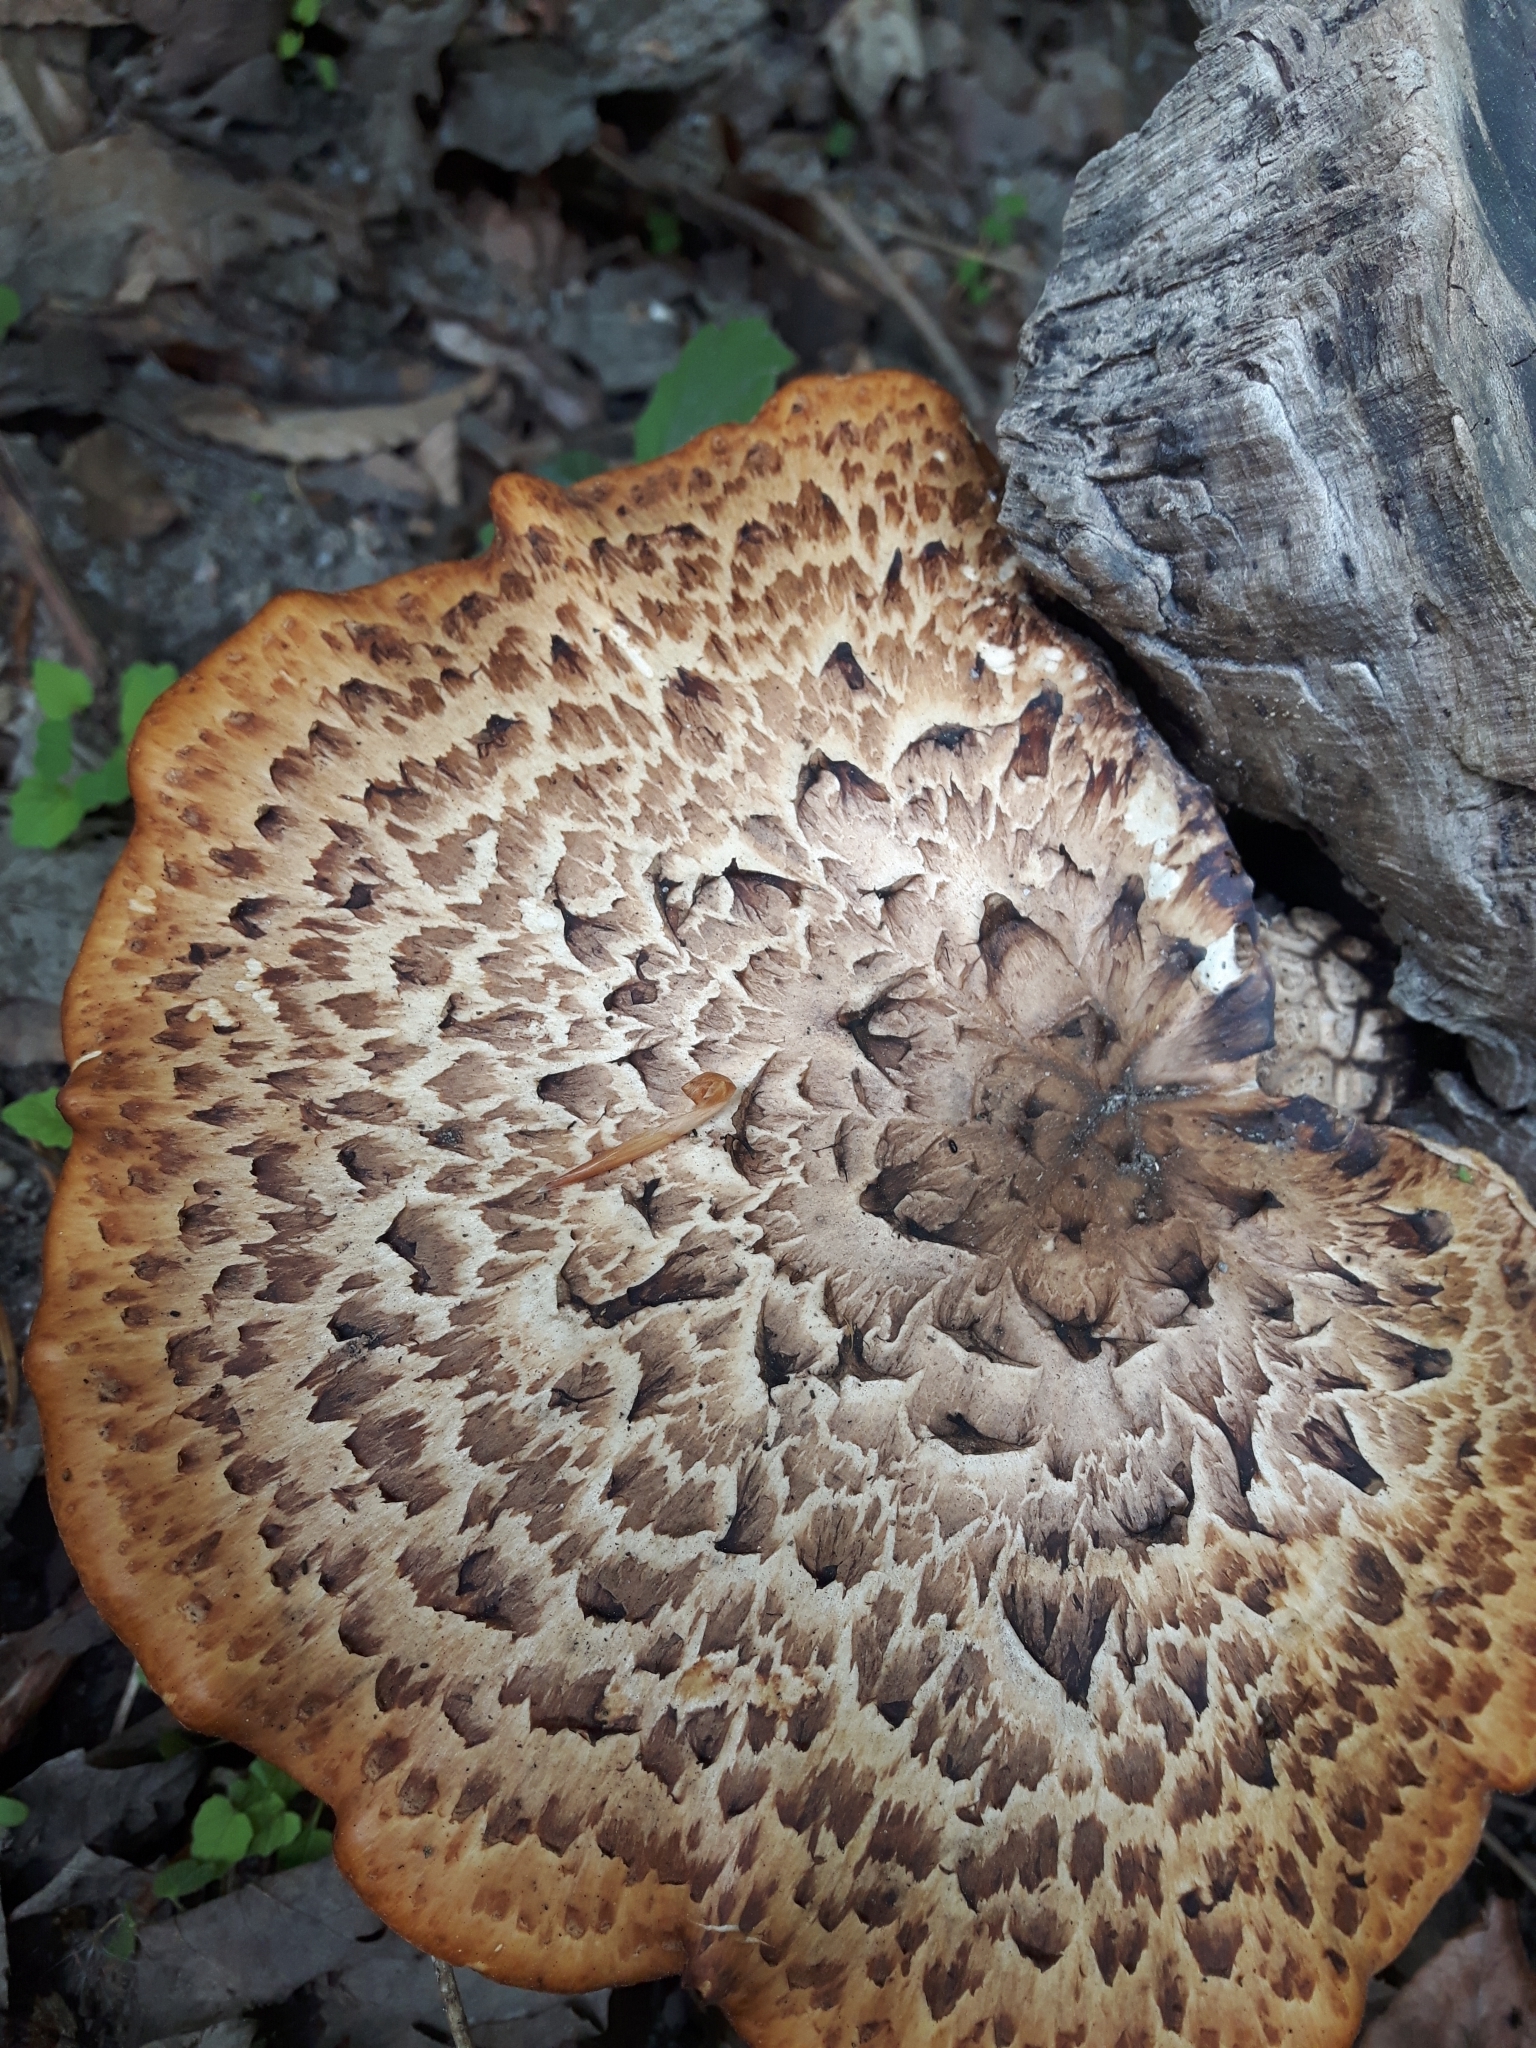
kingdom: Fungi
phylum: Basidiomycota
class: Agaricomycetes
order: Polyporales
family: Polyporaceae
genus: Cerioporus
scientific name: Cerioporus squamosus
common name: Dryad's saddle
